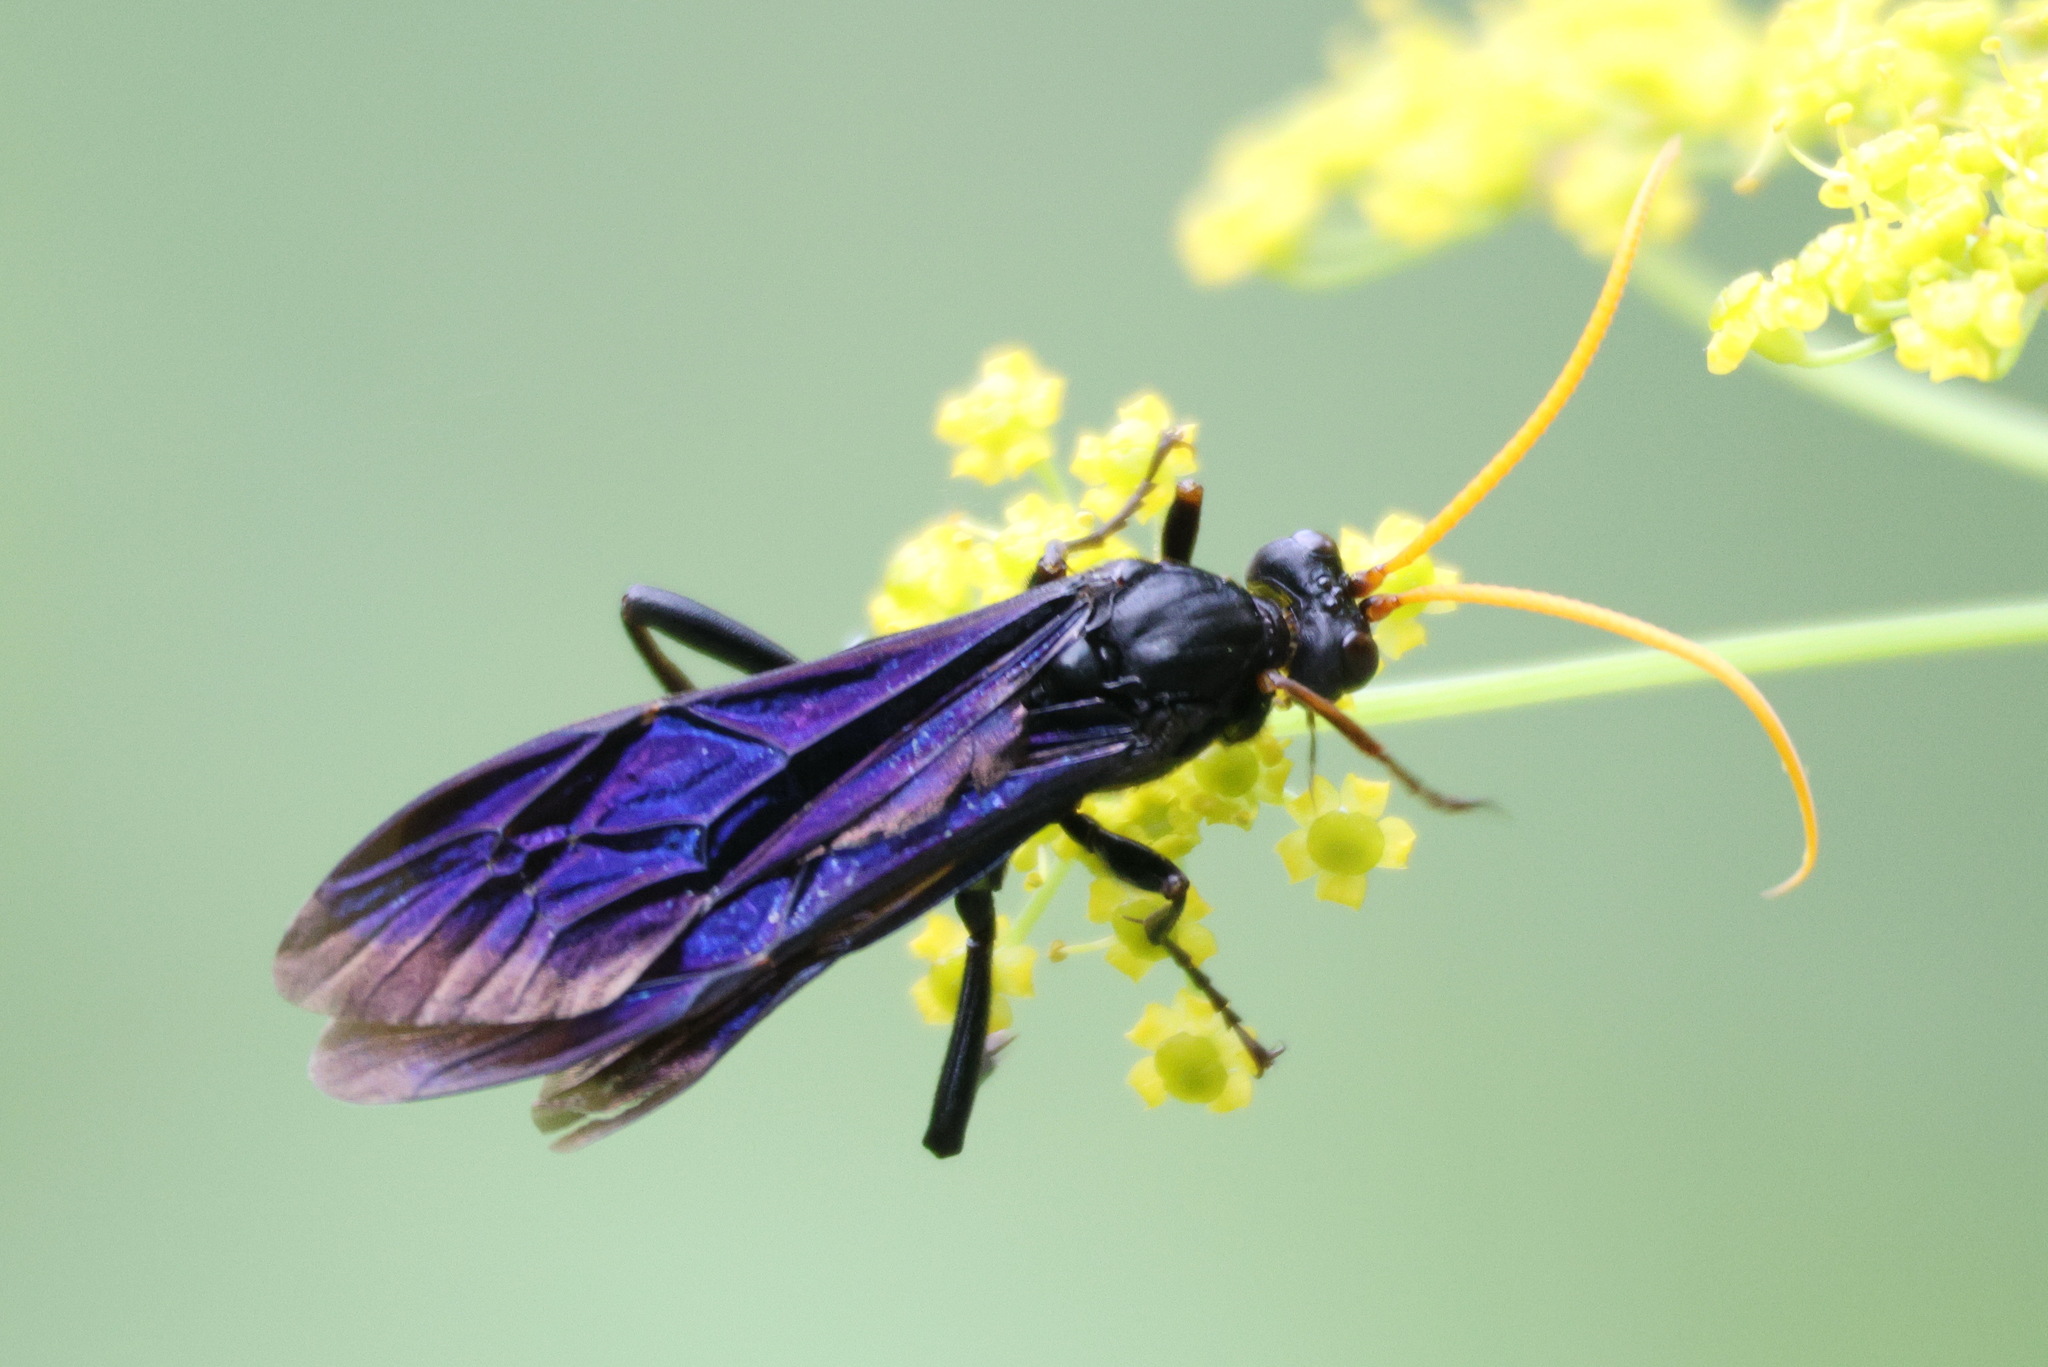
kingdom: Animalia
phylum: Arthropoda
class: Insecta
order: Hymenoptera
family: Ichneumonidae
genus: Gnamptopelta
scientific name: Gnamptopelta obsidianator
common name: Bent-shielded besieger wasp
